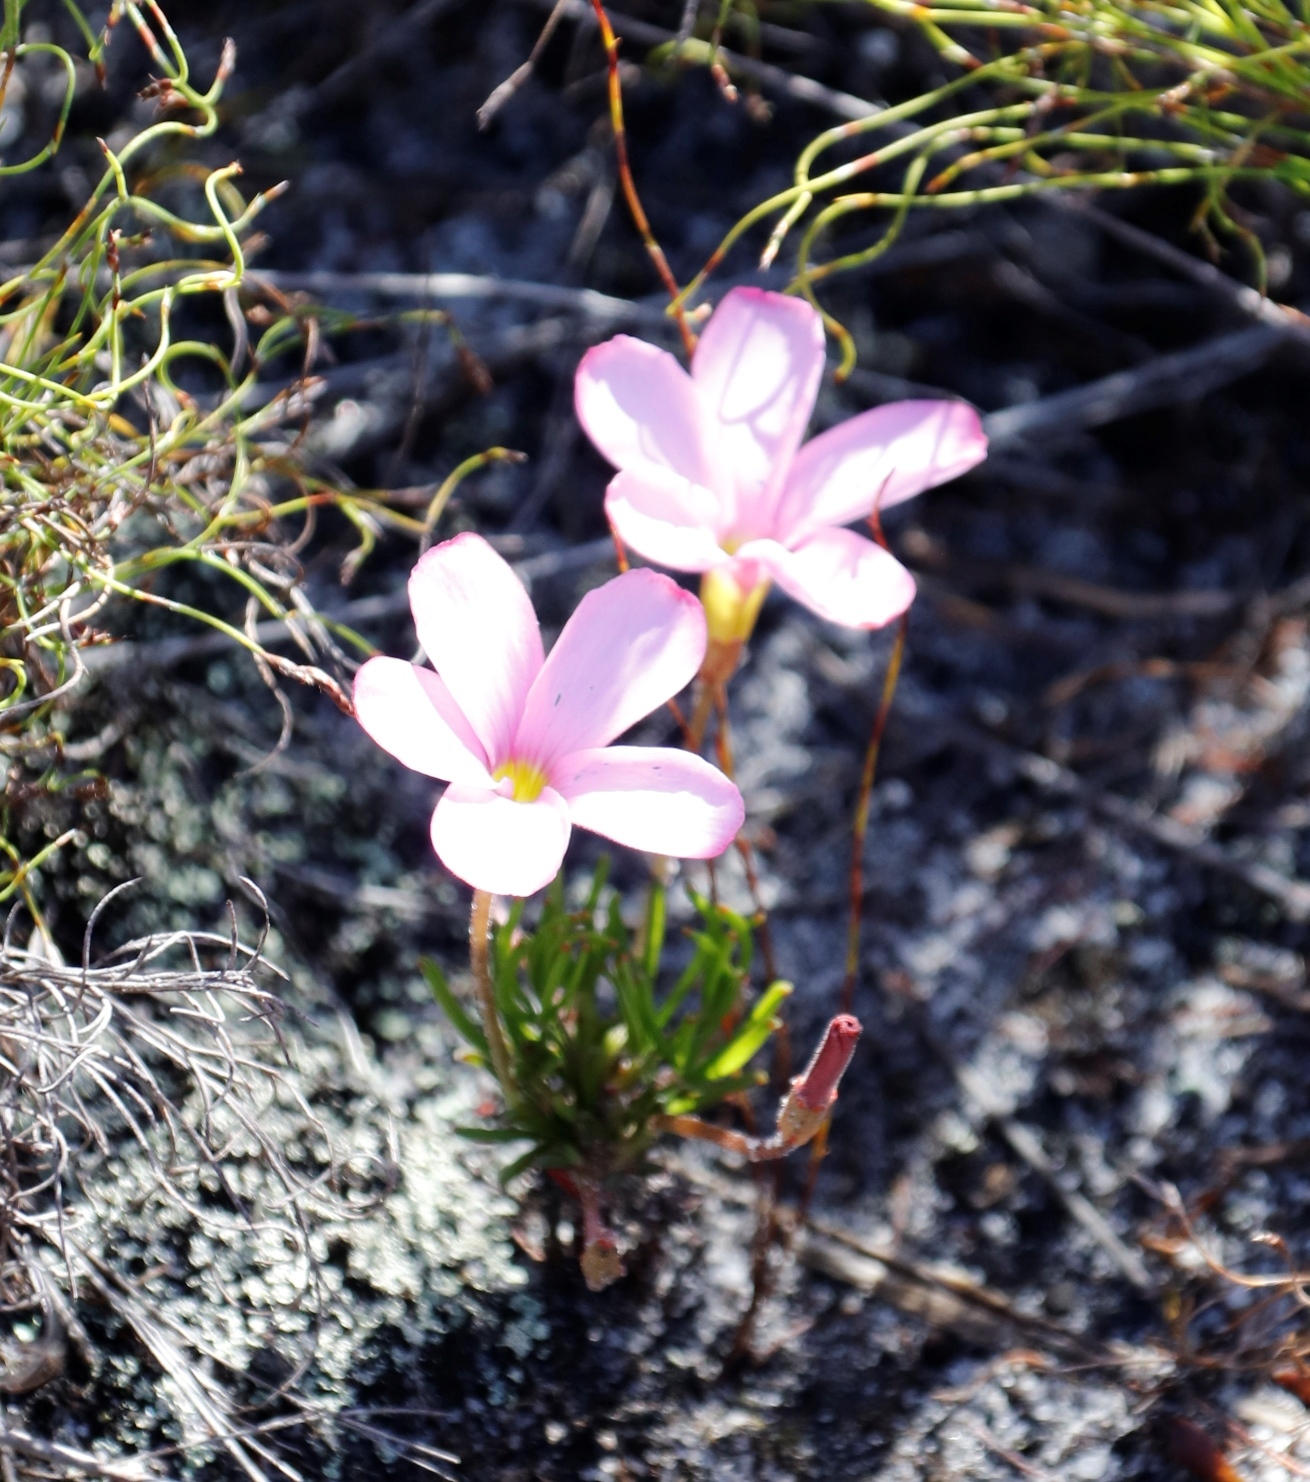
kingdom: Plantae
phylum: Tracheophyta
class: Magnoliopsida
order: Oxalidales
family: Oxalidaceae
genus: Oxalis
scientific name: Oxalis polyphylla
